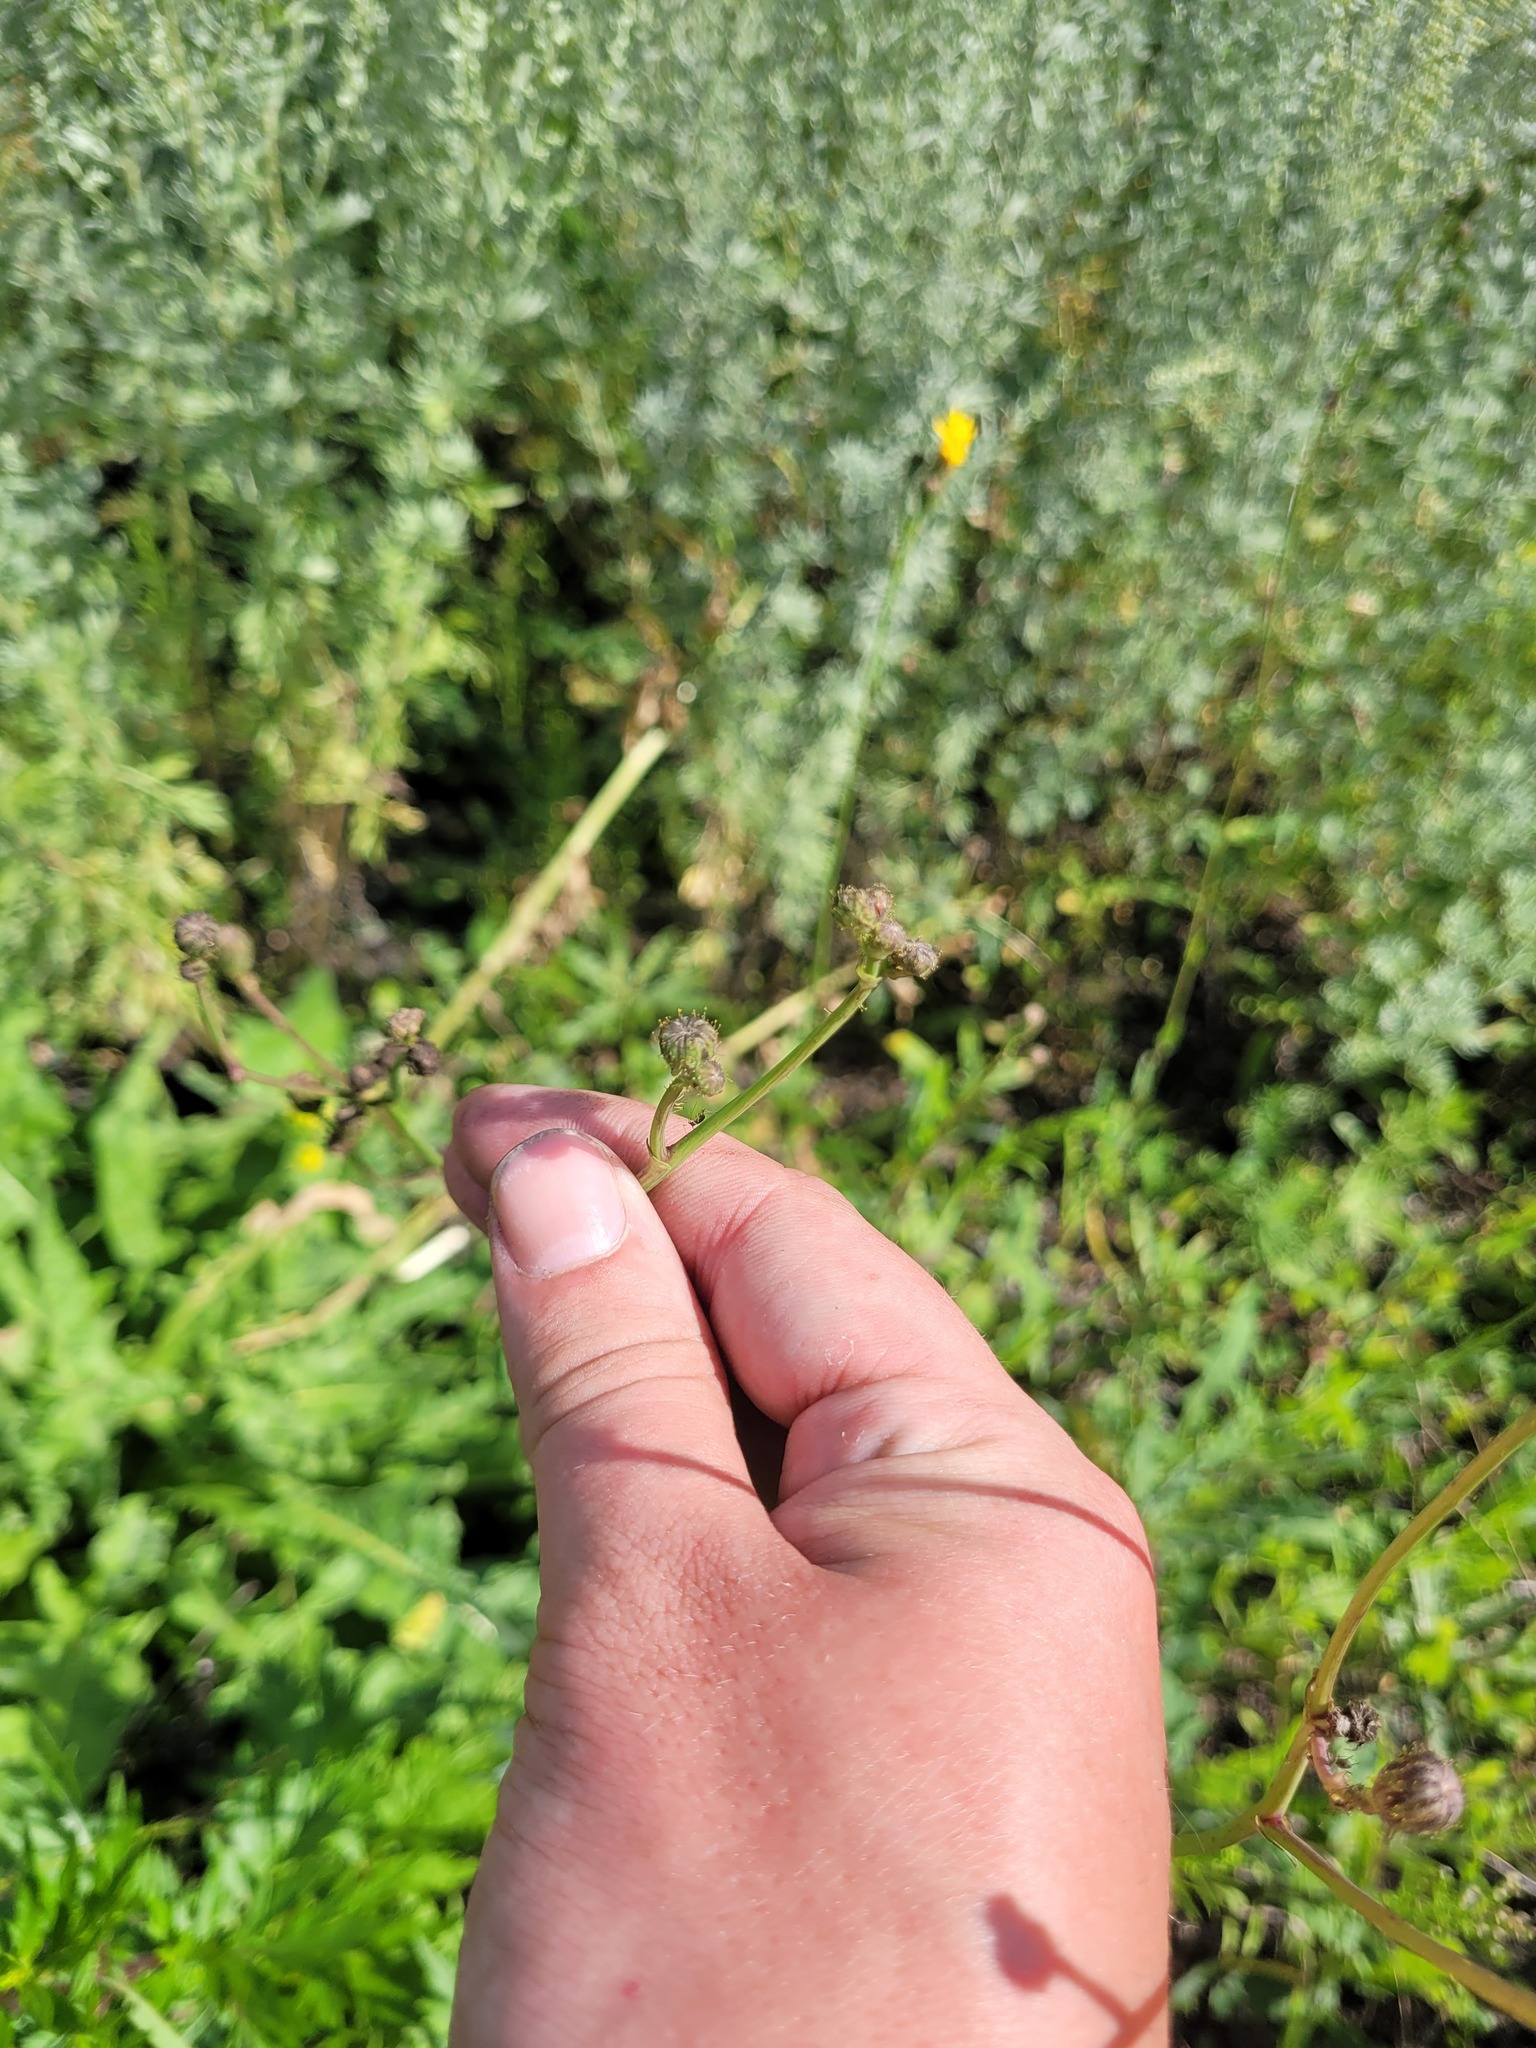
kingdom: Plantae
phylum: Tracheophyta
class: Magnoliopsida
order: Asterales
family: Asteraceae
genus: Sonchus
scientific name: Sonchus arvensis
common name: Perennial sow-thistle
